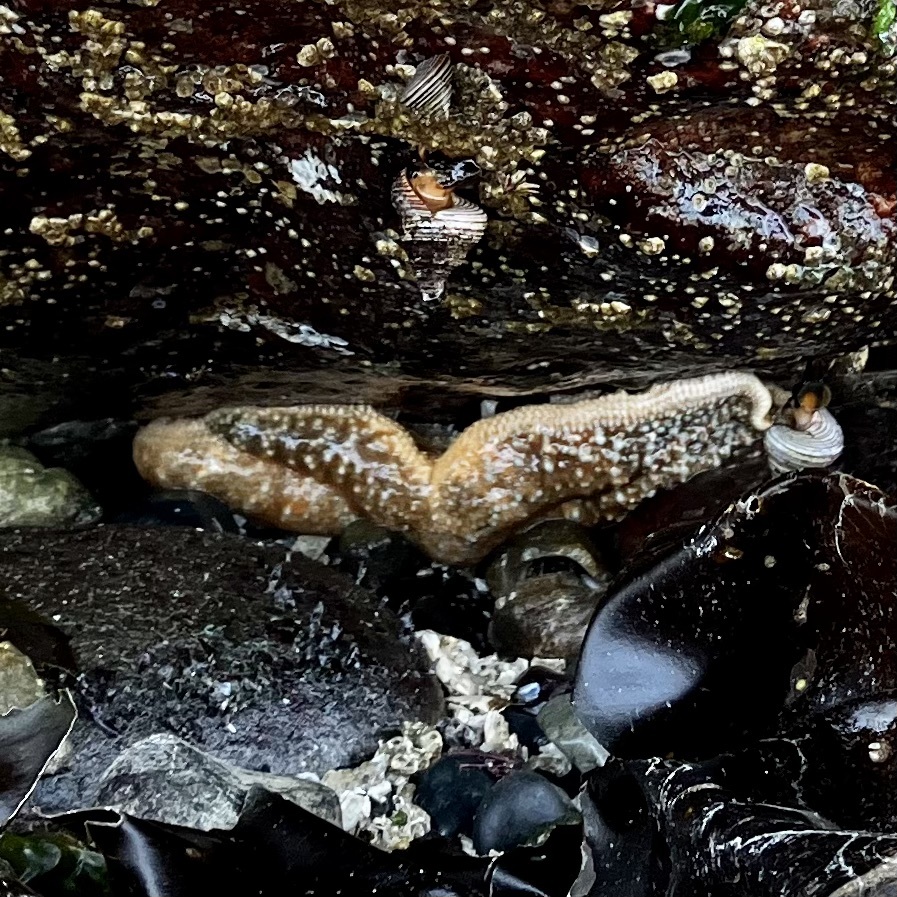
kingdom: Animalia
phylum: Echinodermata
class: Asteroidea
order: Forcipulatida
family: Asteriidae
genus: Evasterias
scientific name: Evasterias troschelii
